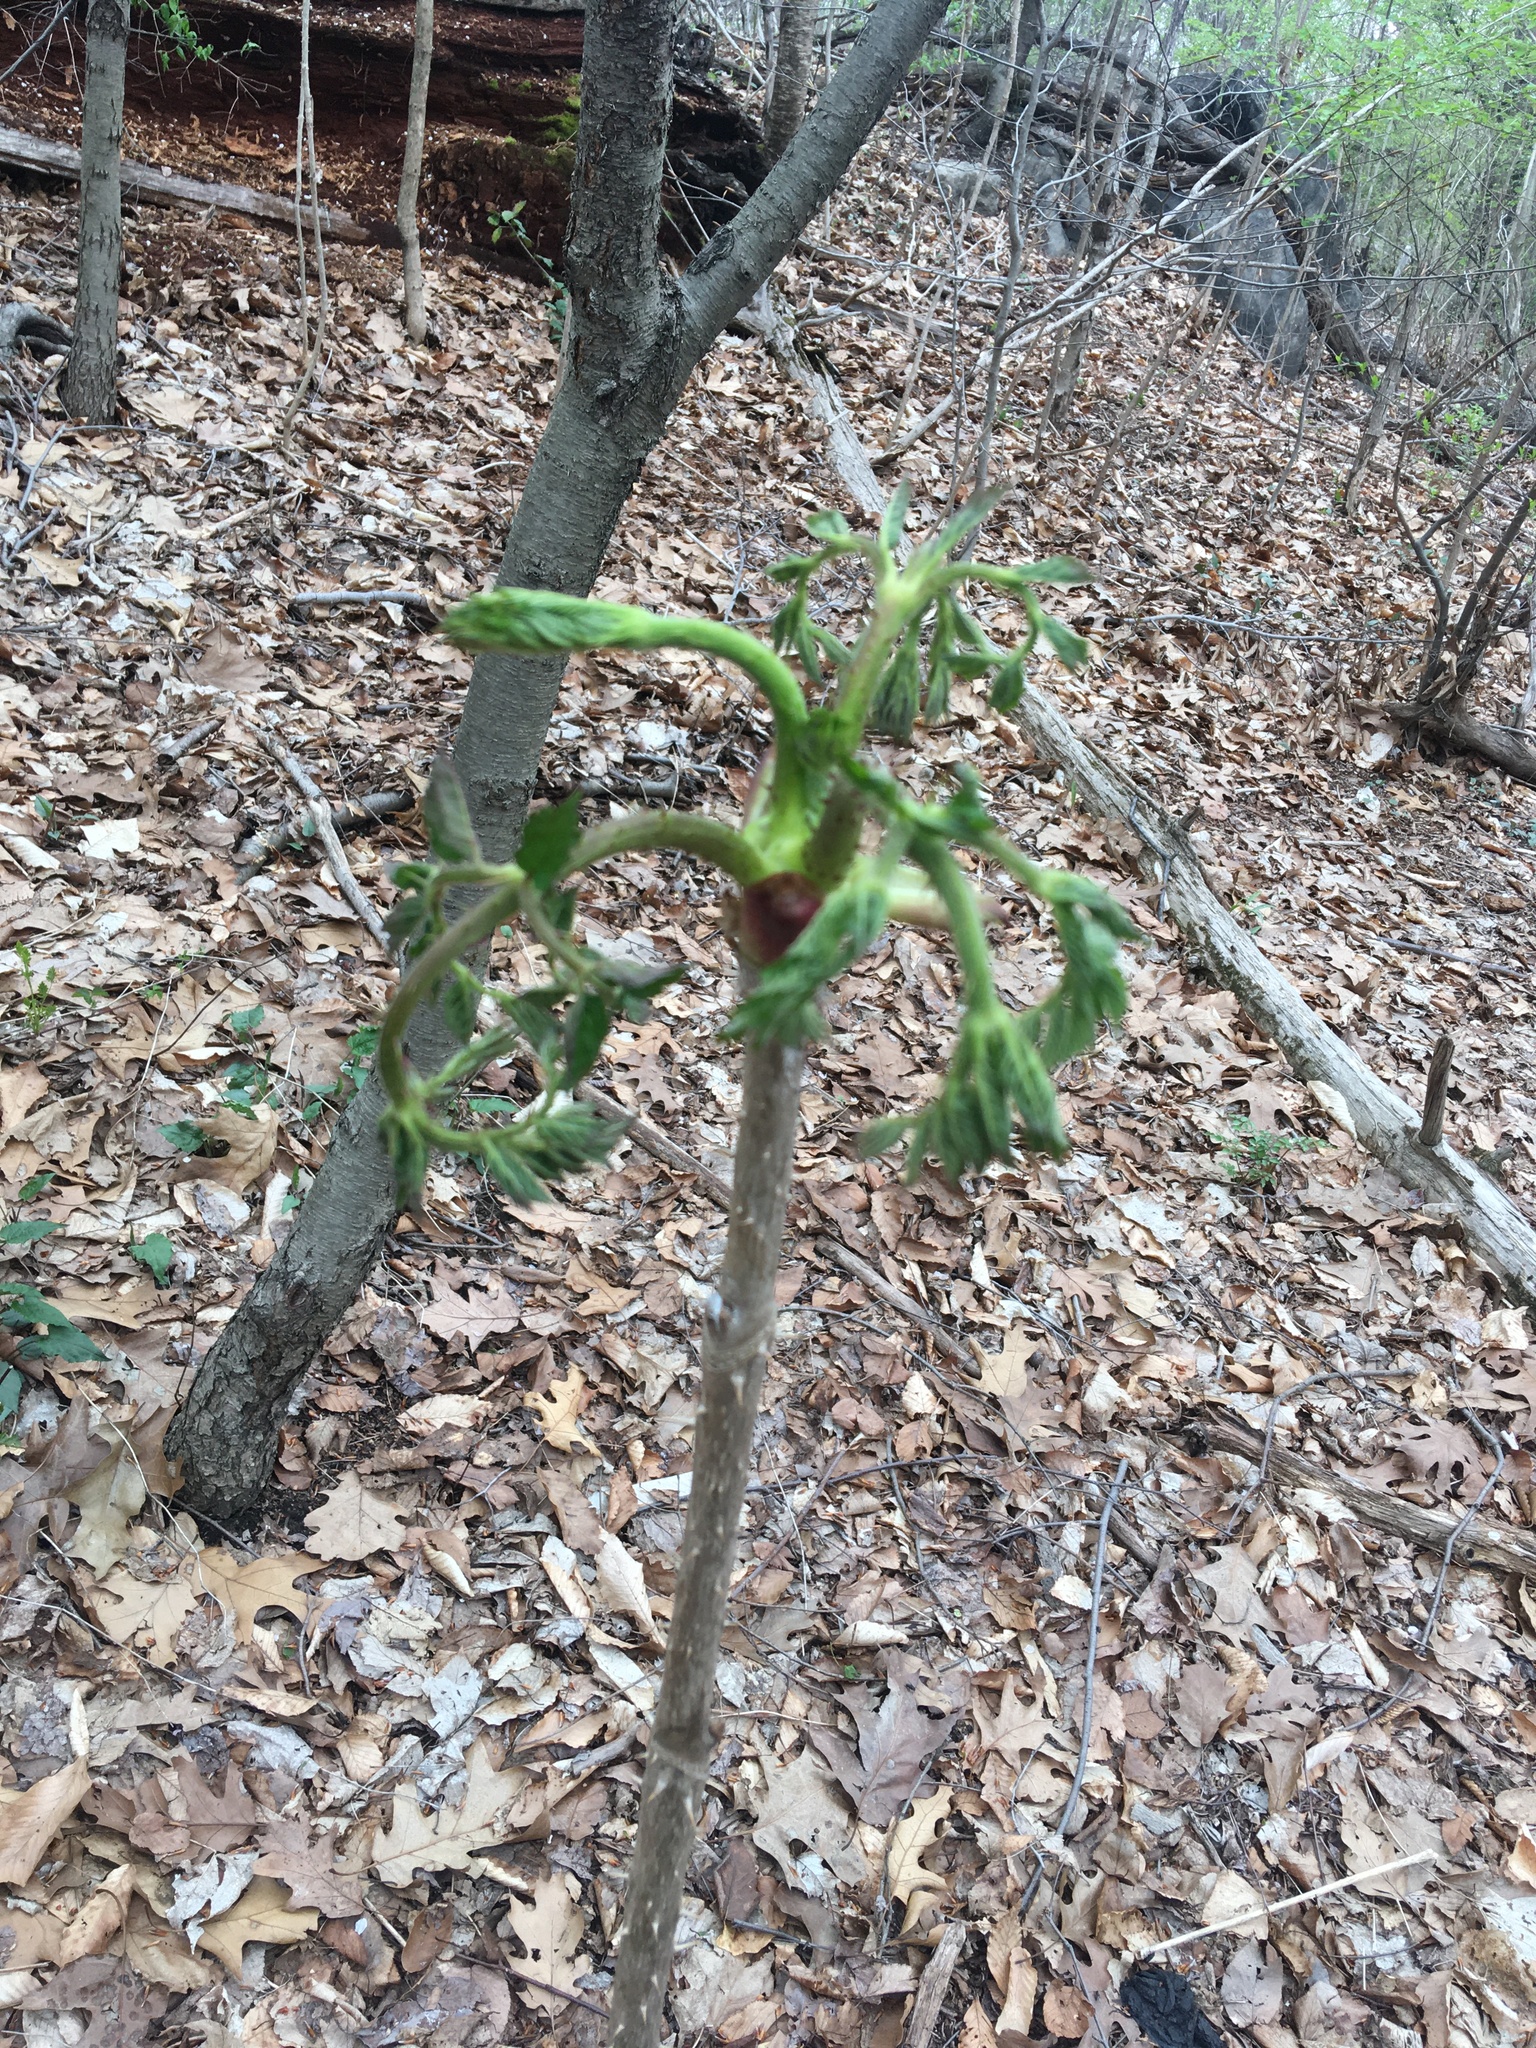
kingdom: Plantae
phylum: Tracheophyta
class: Magnoliopsida
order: Apiales
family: Araliaceae
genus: Aralia
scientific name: Aralia elata
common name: Japanese angelica-tree
